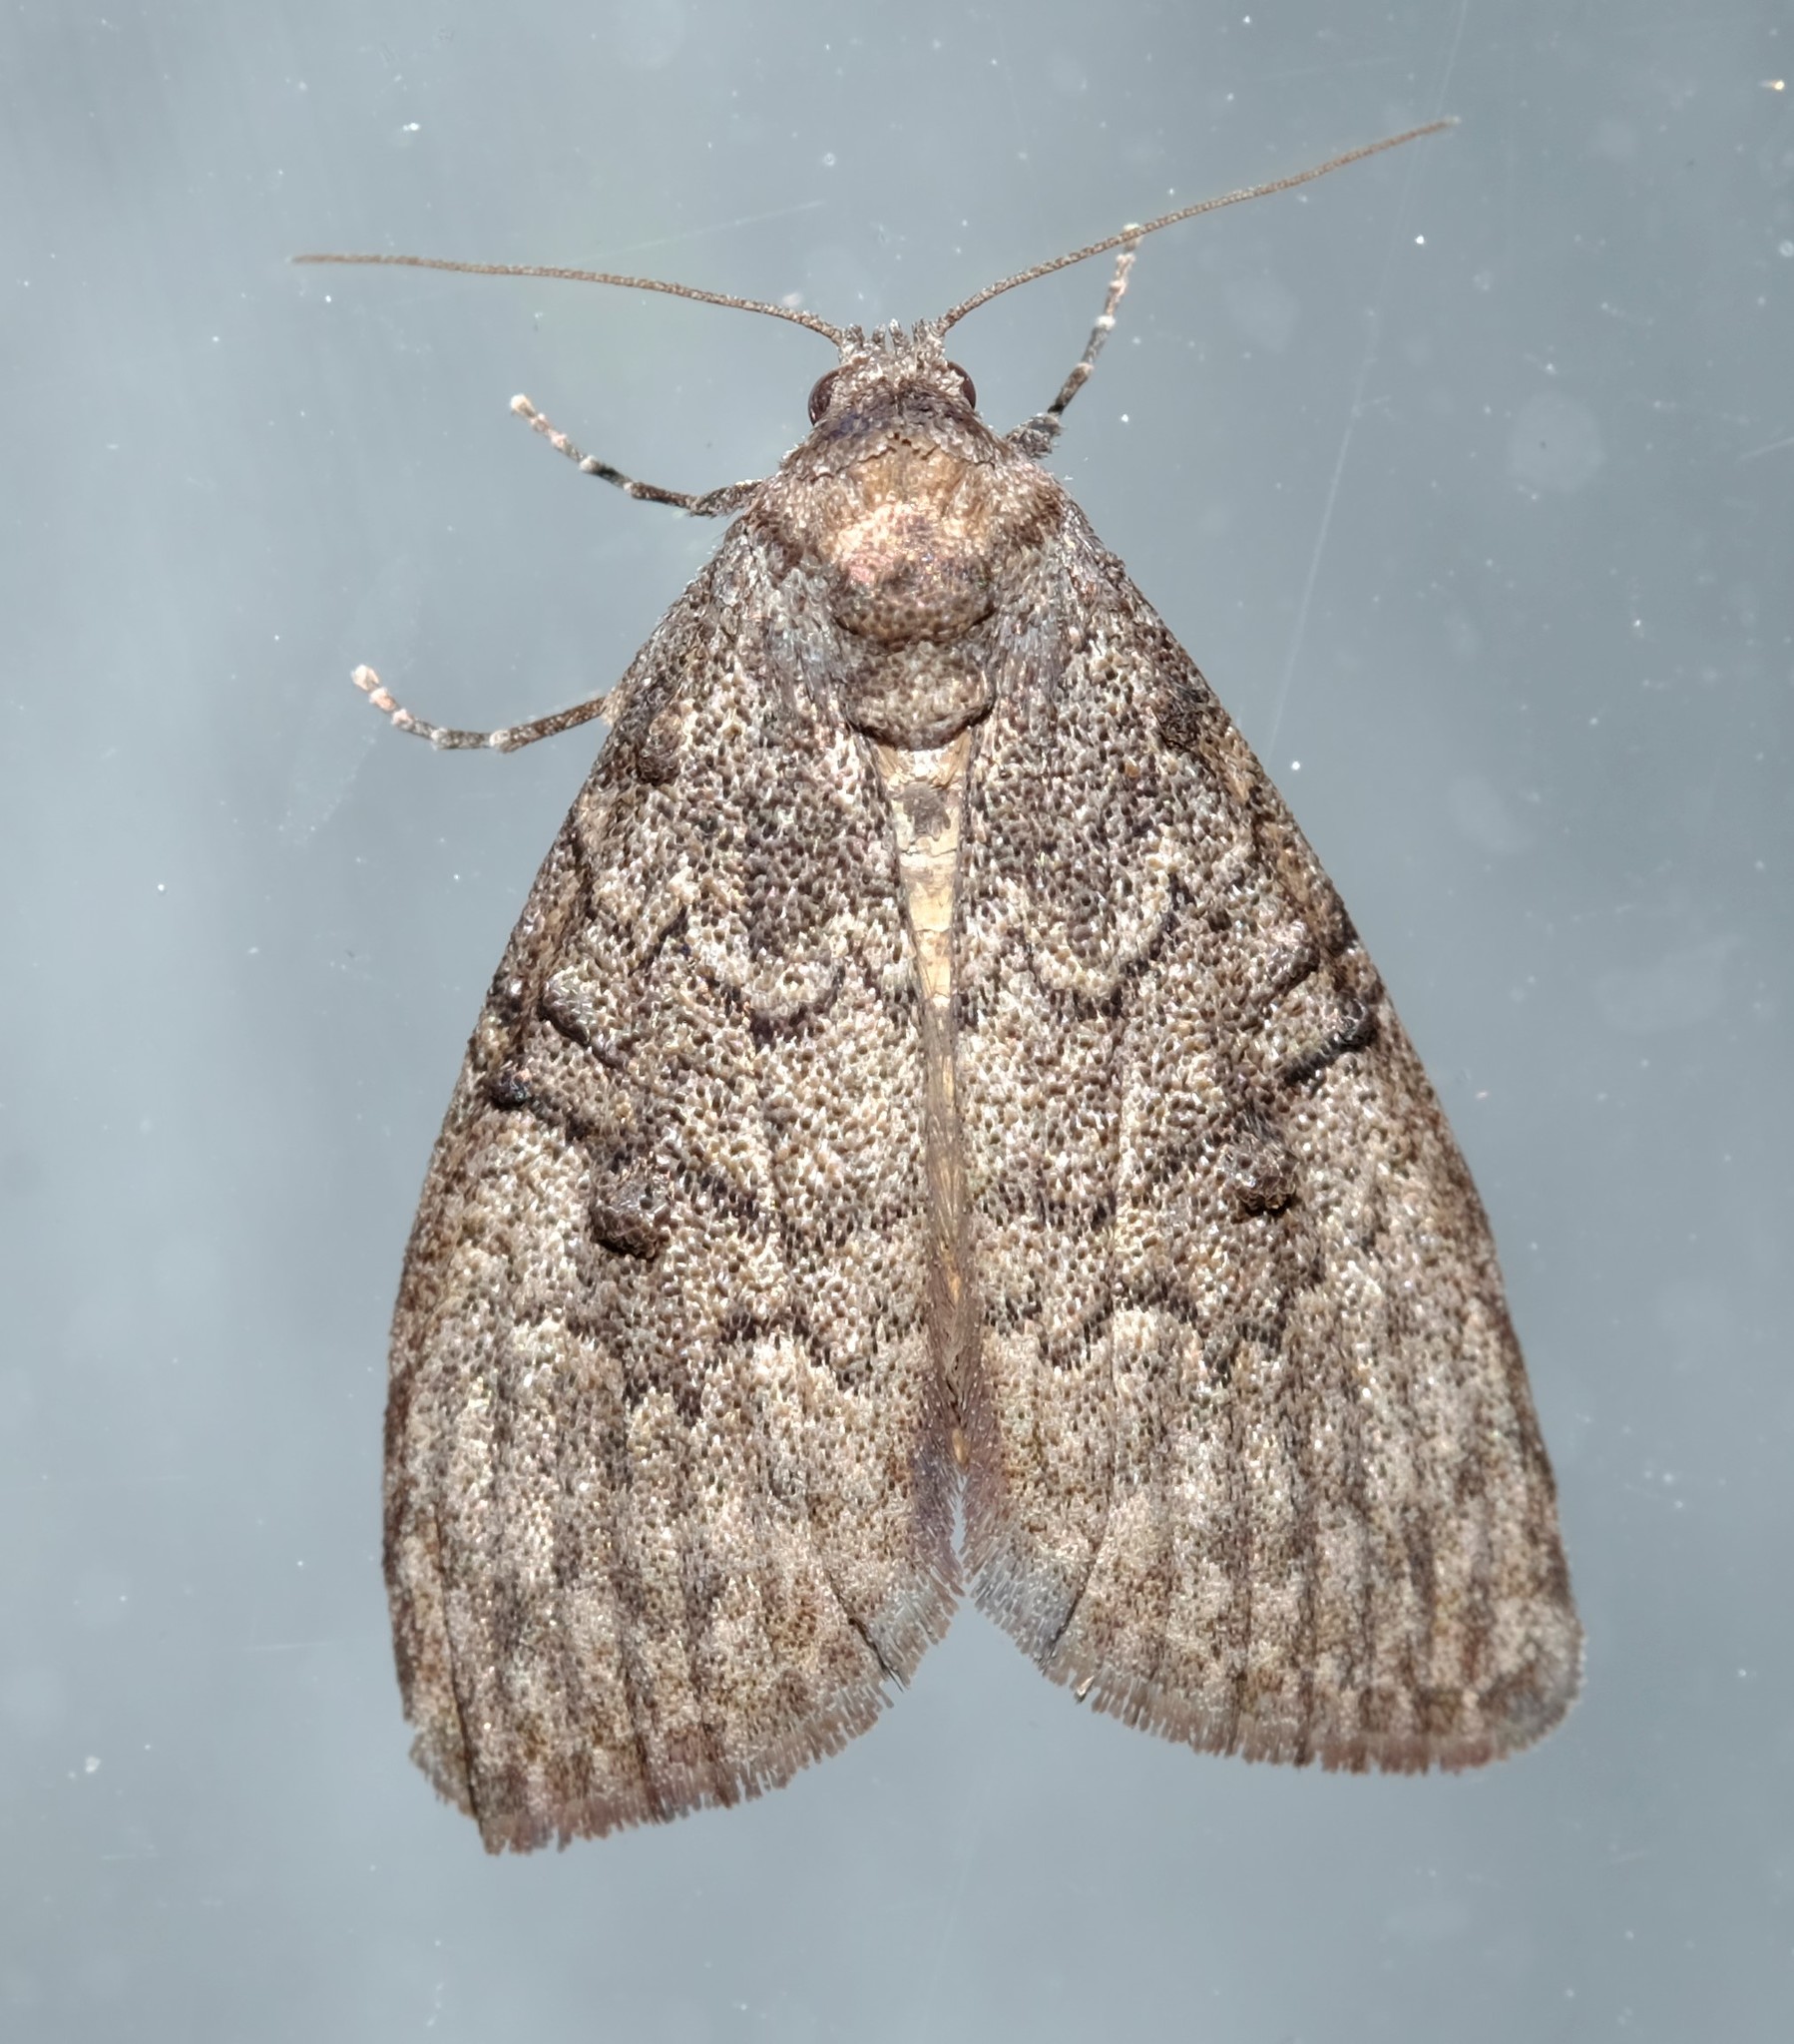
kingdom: Animalia
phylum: Arthropoda
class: Insecta
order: Lepidoptera
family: Nolidae
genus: Uraba
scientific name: Uraba lugens
